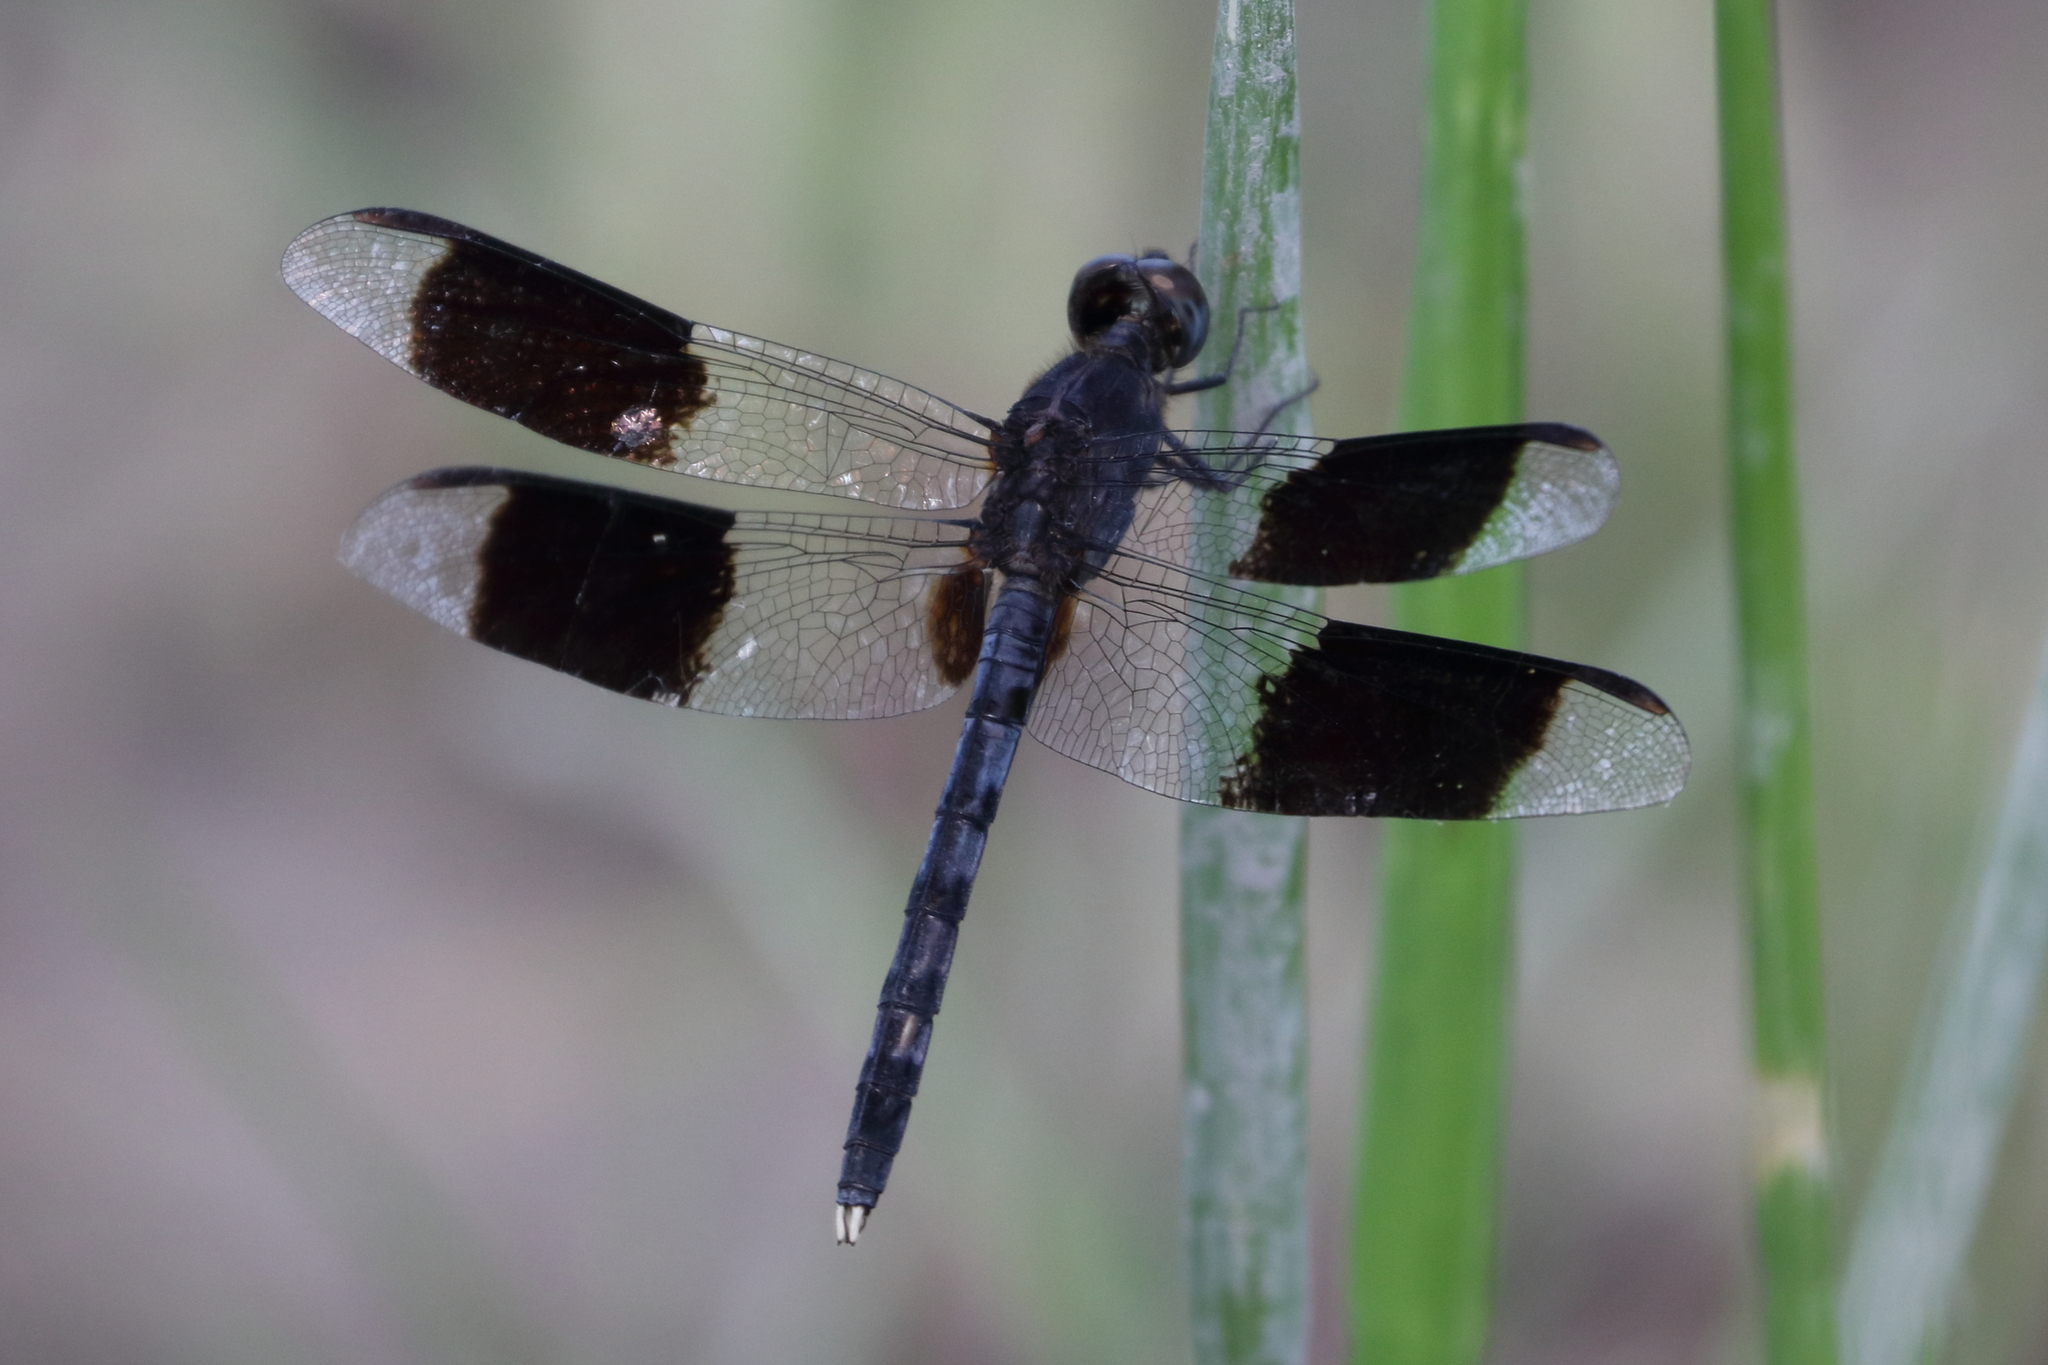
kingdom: Animalia
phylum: Arthropoda
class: Insecta
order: Odonata
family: Libellulidae
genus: Erythrodiplax
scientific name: Erythrodiplax umbrata
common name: Band-winged dragonlet
